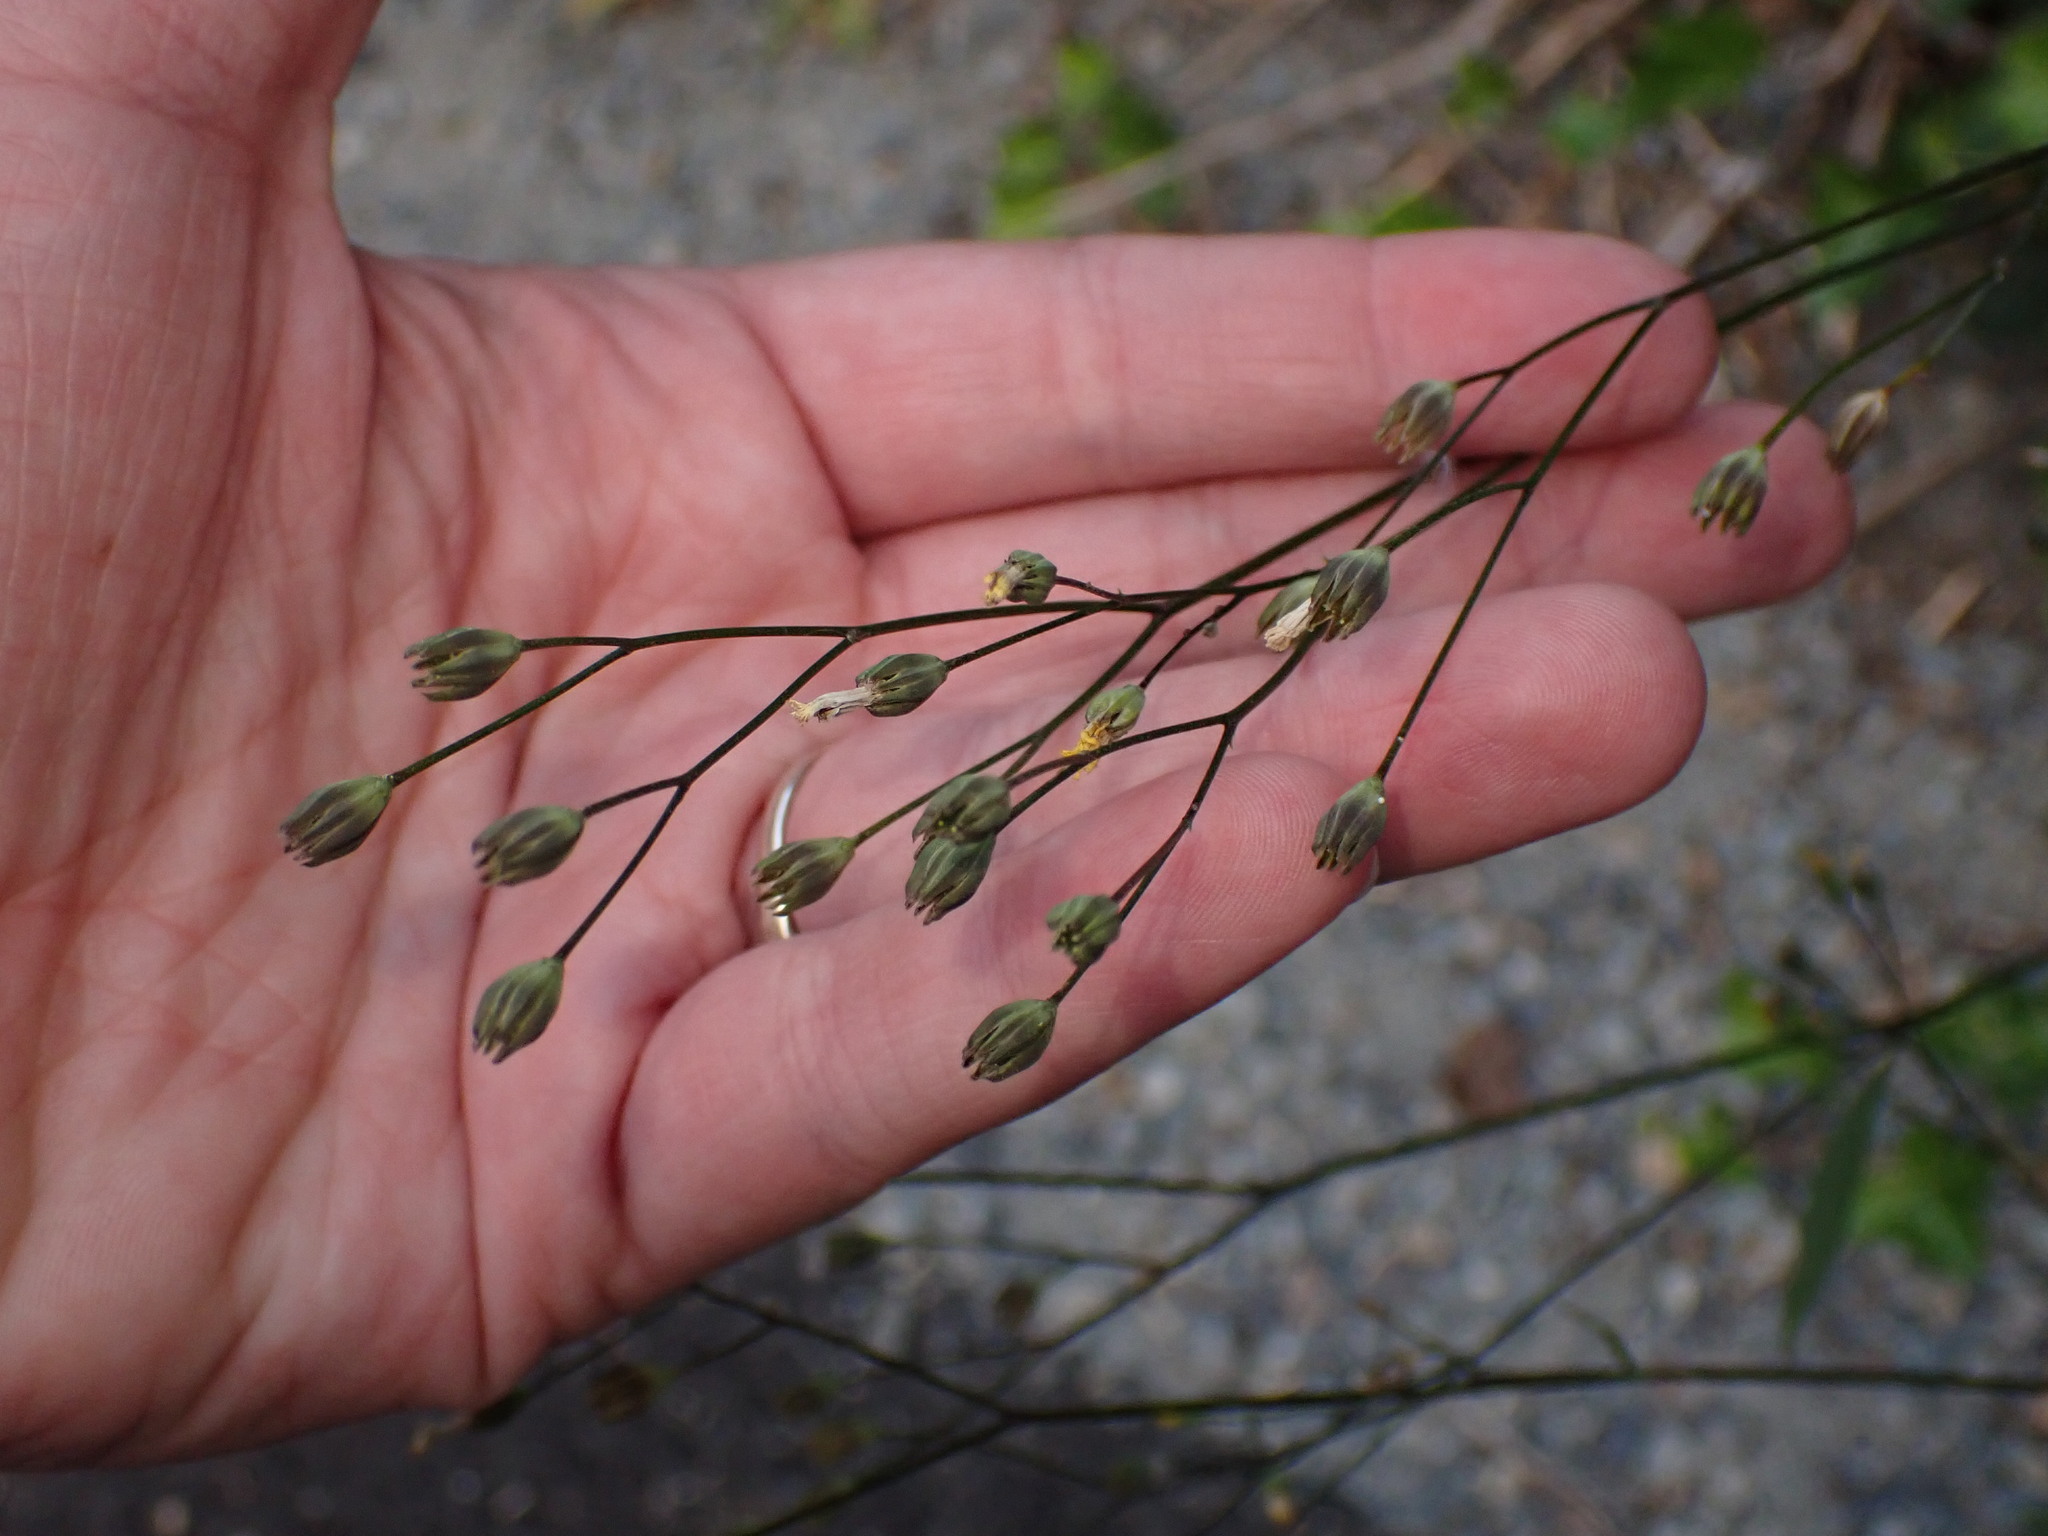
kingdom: Plantae
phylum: Tracheophyta
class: Magnoliopsida
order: Asterales
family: Asteraceae
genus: Lapsana
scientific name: Lapsana communis
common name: Nipplewort
